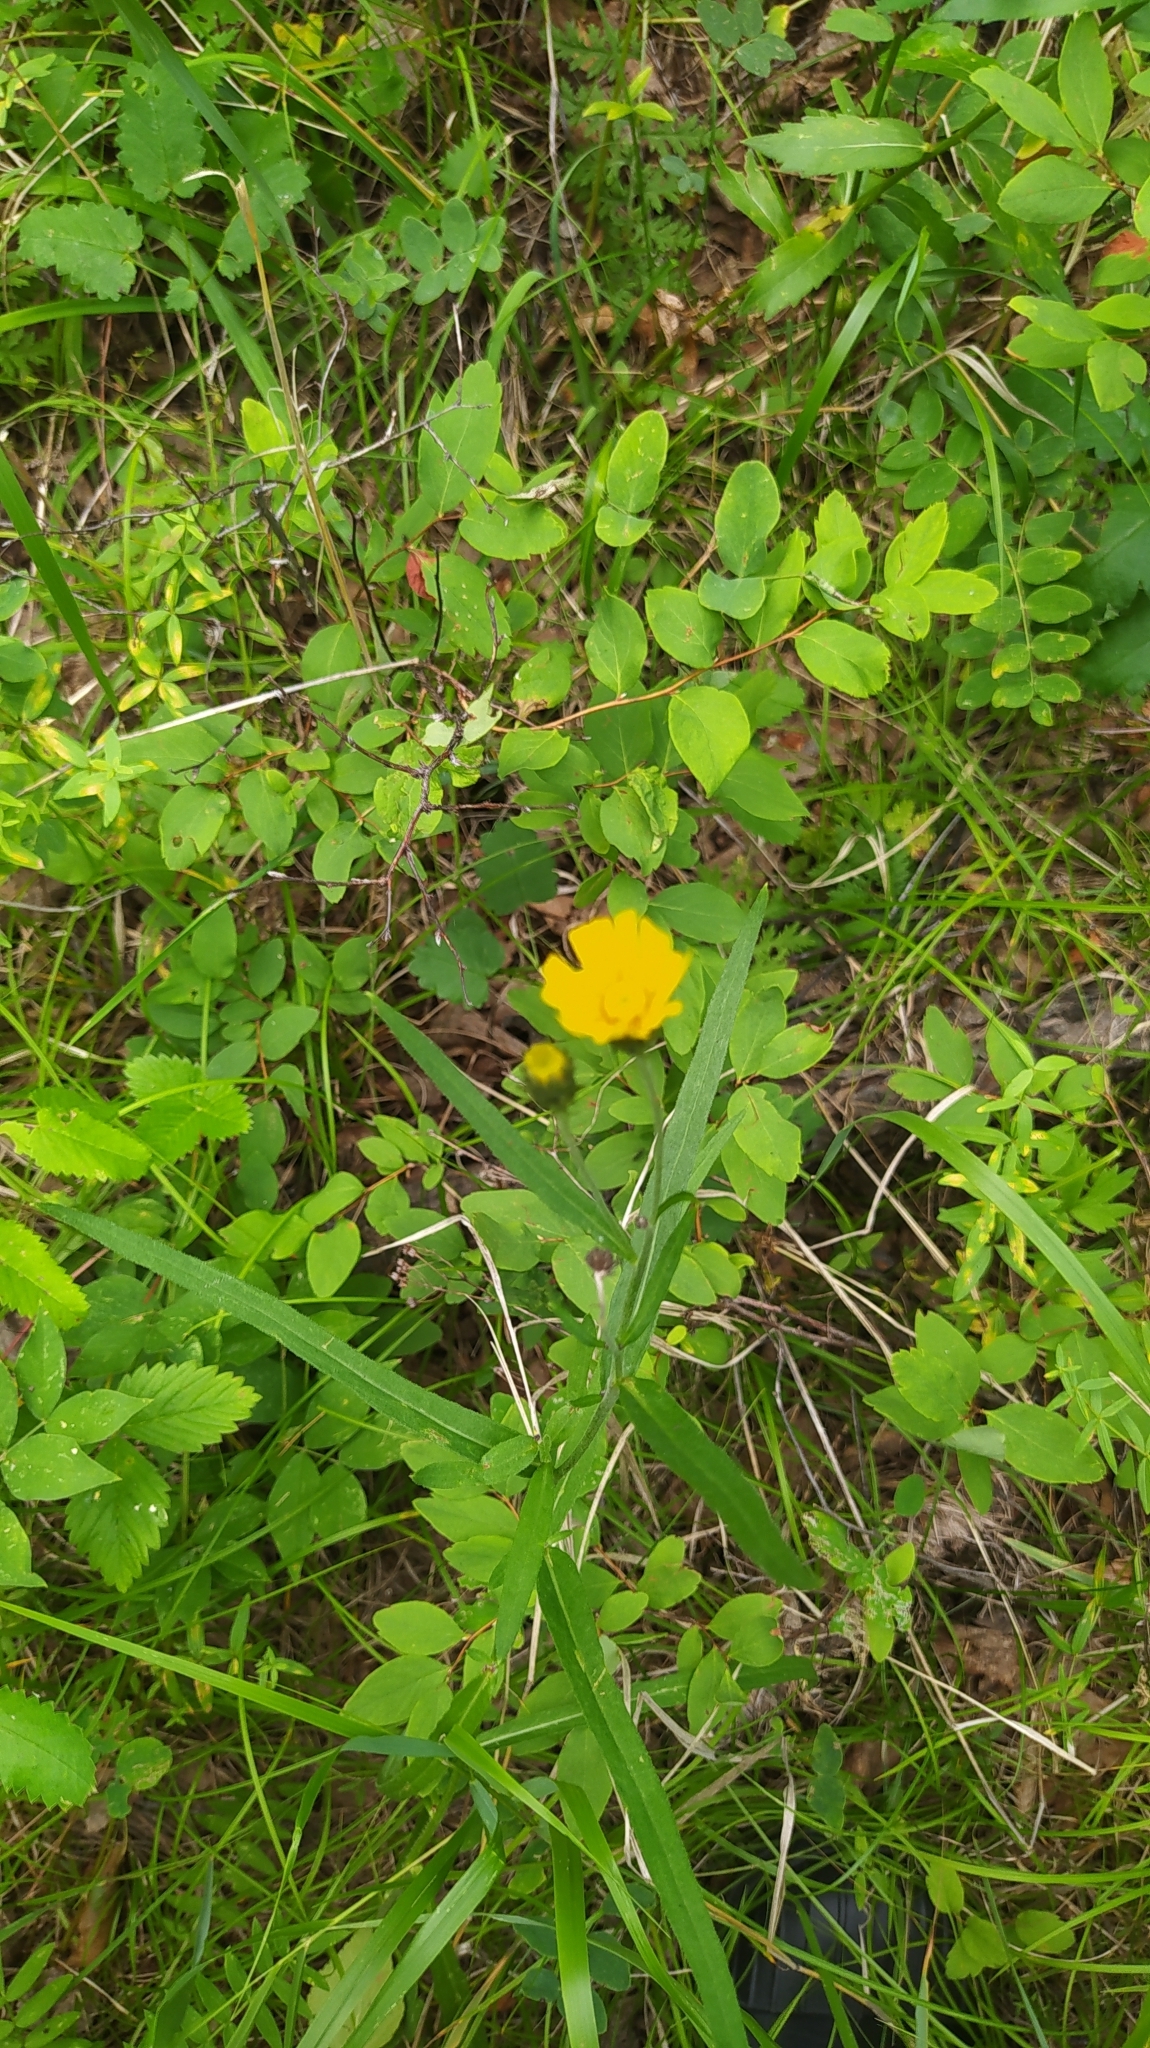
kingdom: Plantae
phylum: Tracheophyta
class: Magnoliopsida
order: Asterales
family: Asteraceae
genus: Hieracium
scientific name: Hieracium umbellatum
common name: Northern hawkweed
